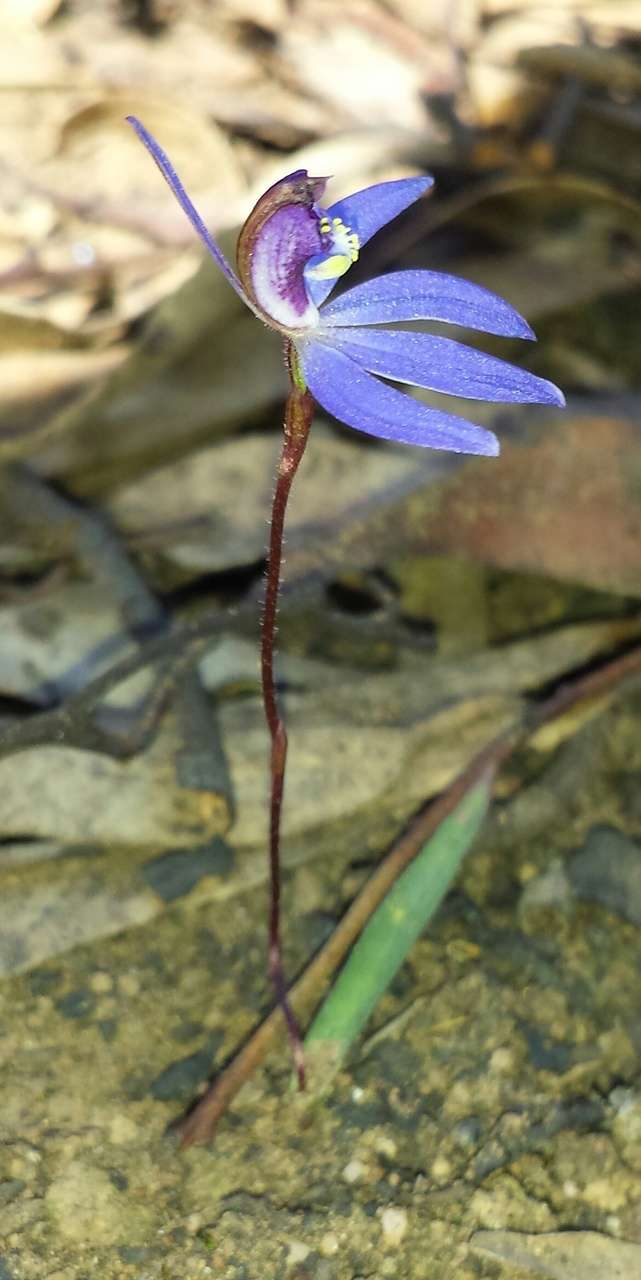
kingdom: Plantae
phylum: Tracheophyta
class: Liliopsida
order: Asparagales
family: Orchidaceae
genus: Caladenia
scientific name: Caladenia caerulea
